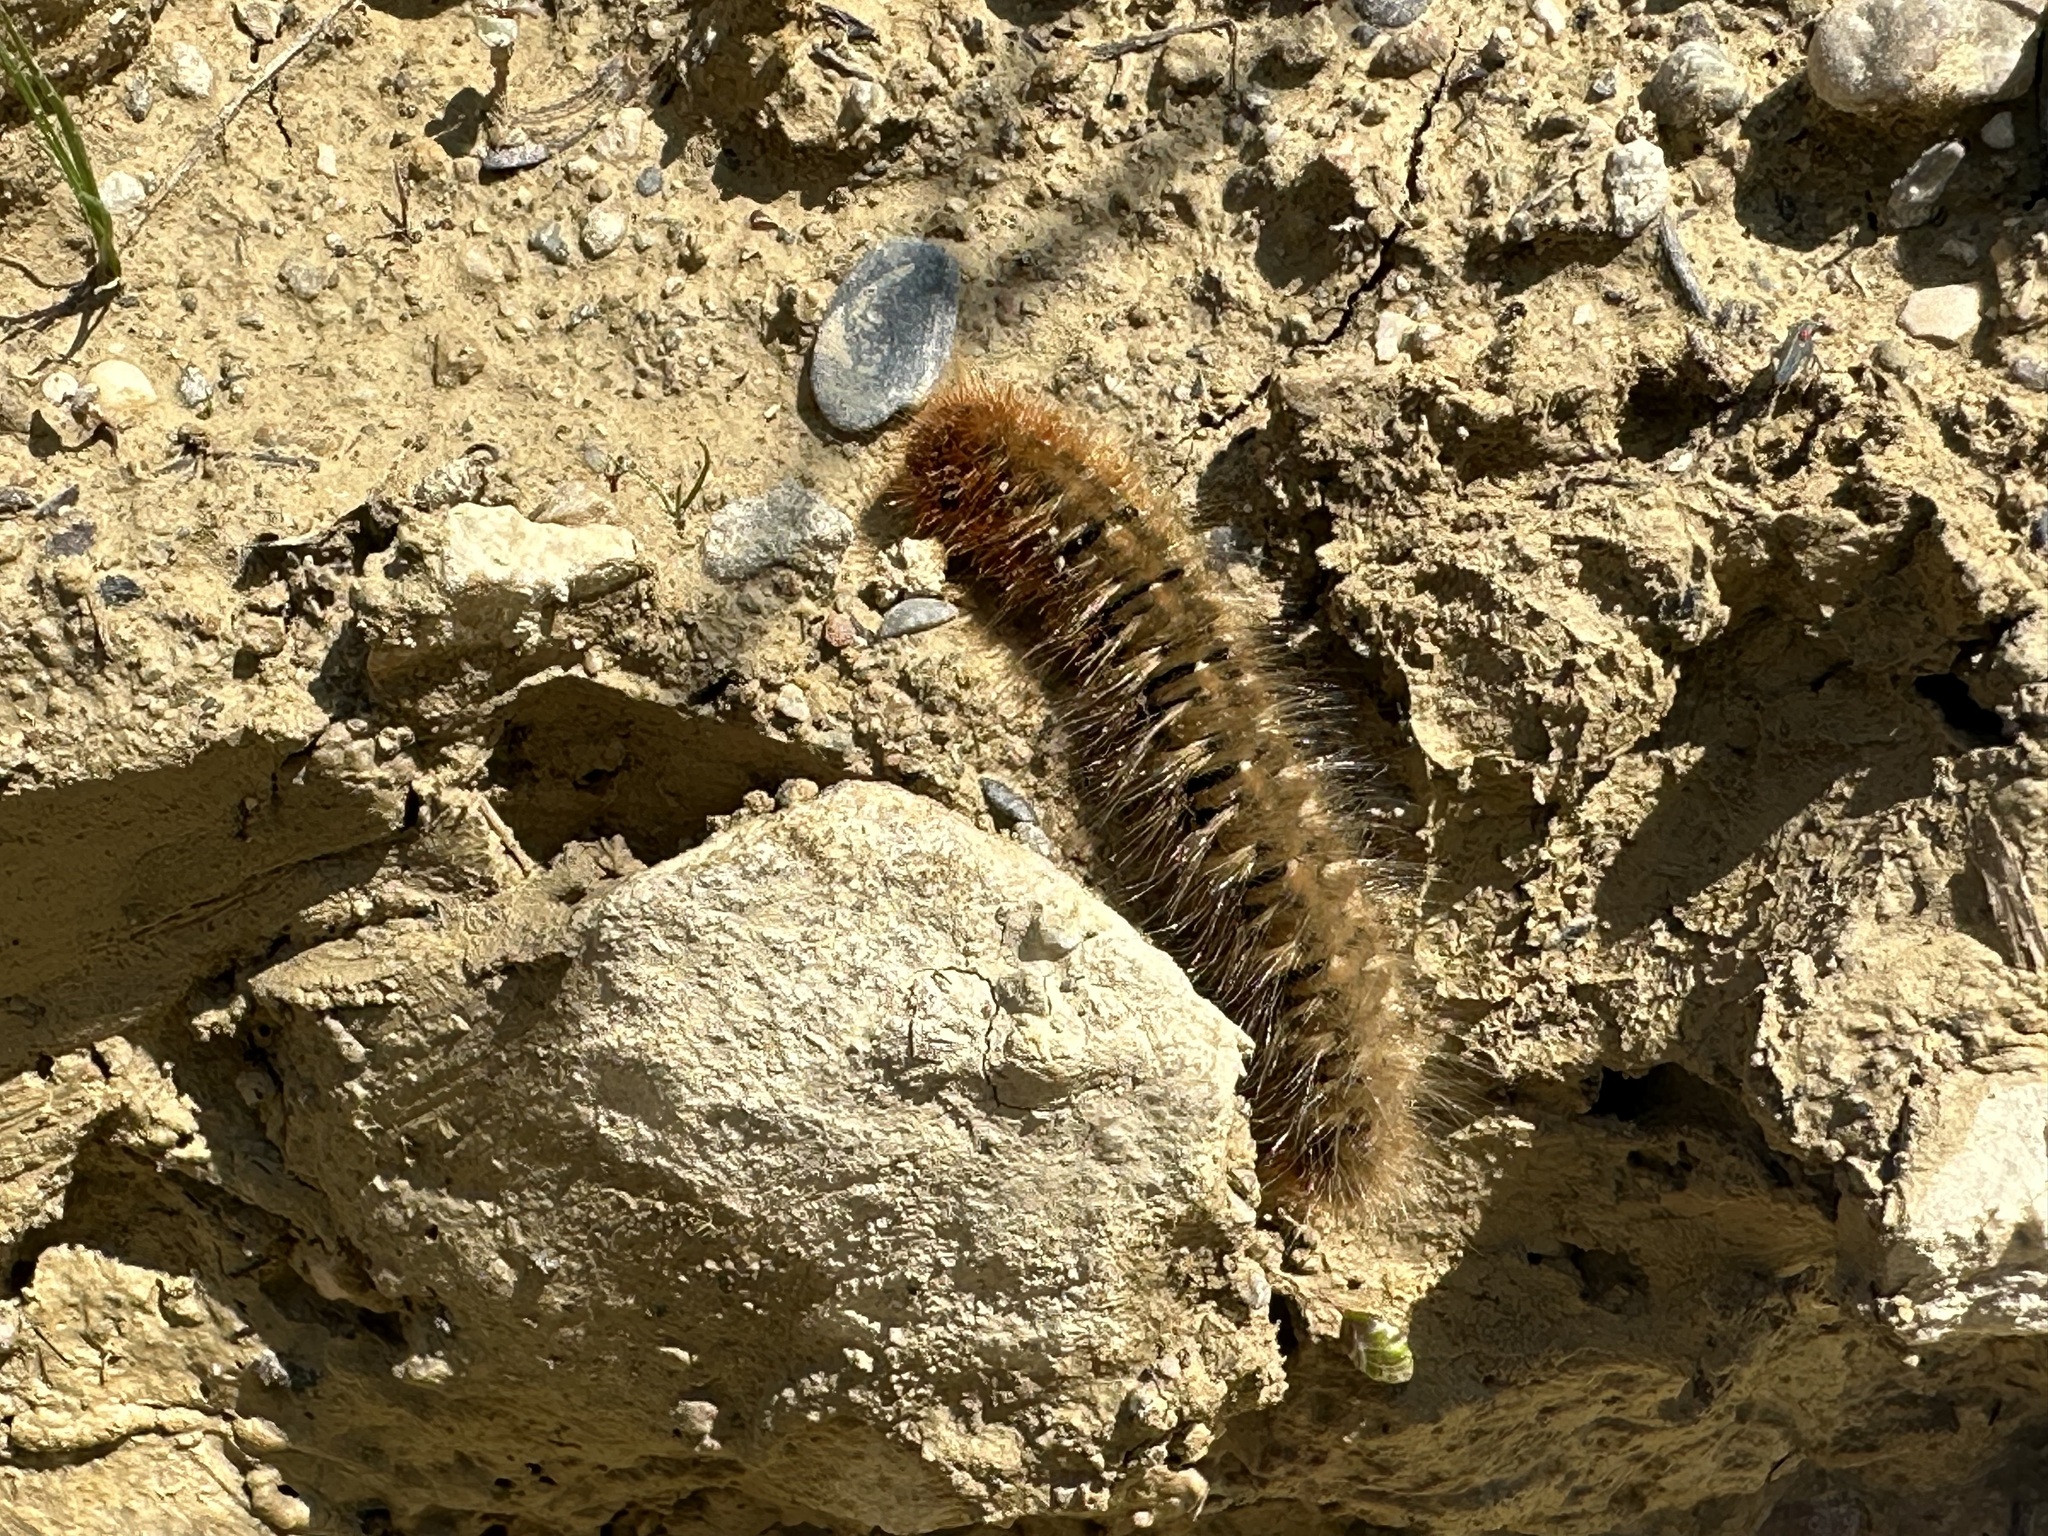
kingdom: Animalia
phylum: Arthropoda
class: Insecta
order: Lepidoptera
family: Lasiocampidae
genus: Lasiocampa
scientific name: Lasiocampa quercus
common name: Oak eggar
